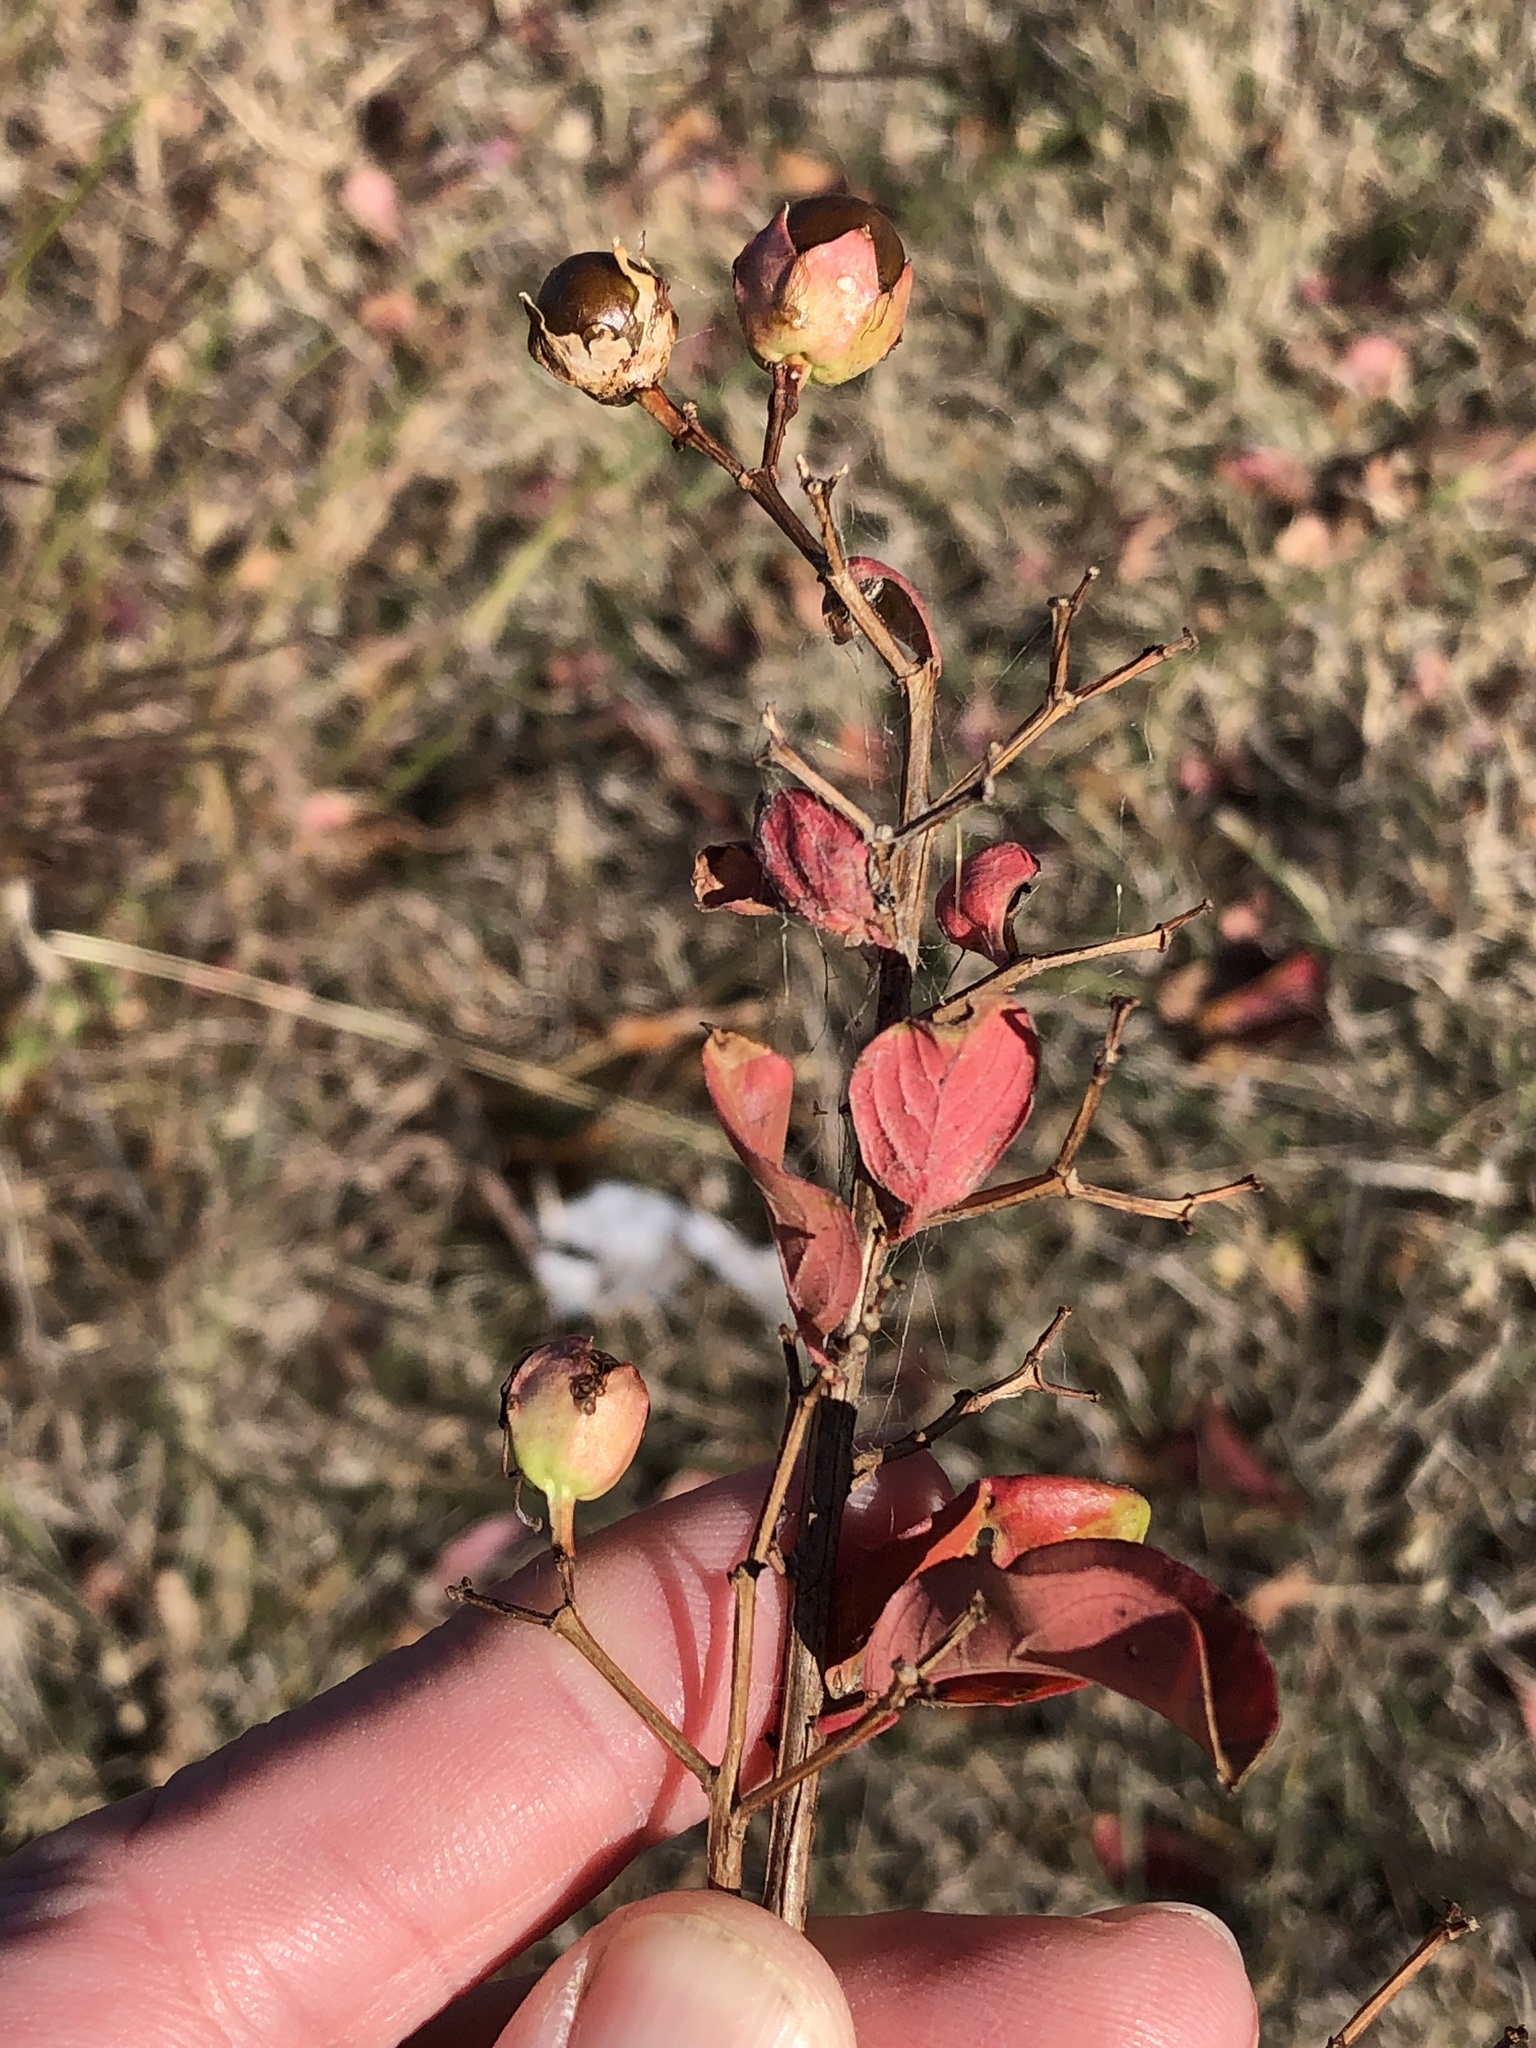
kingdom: Plantae
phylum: Tracheophyta
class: Magnoliopsida
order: Myrtales
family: Lythraceae
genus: Lagerstroemia
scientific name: Lagerstroemia indica
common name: Crape-myrtle
